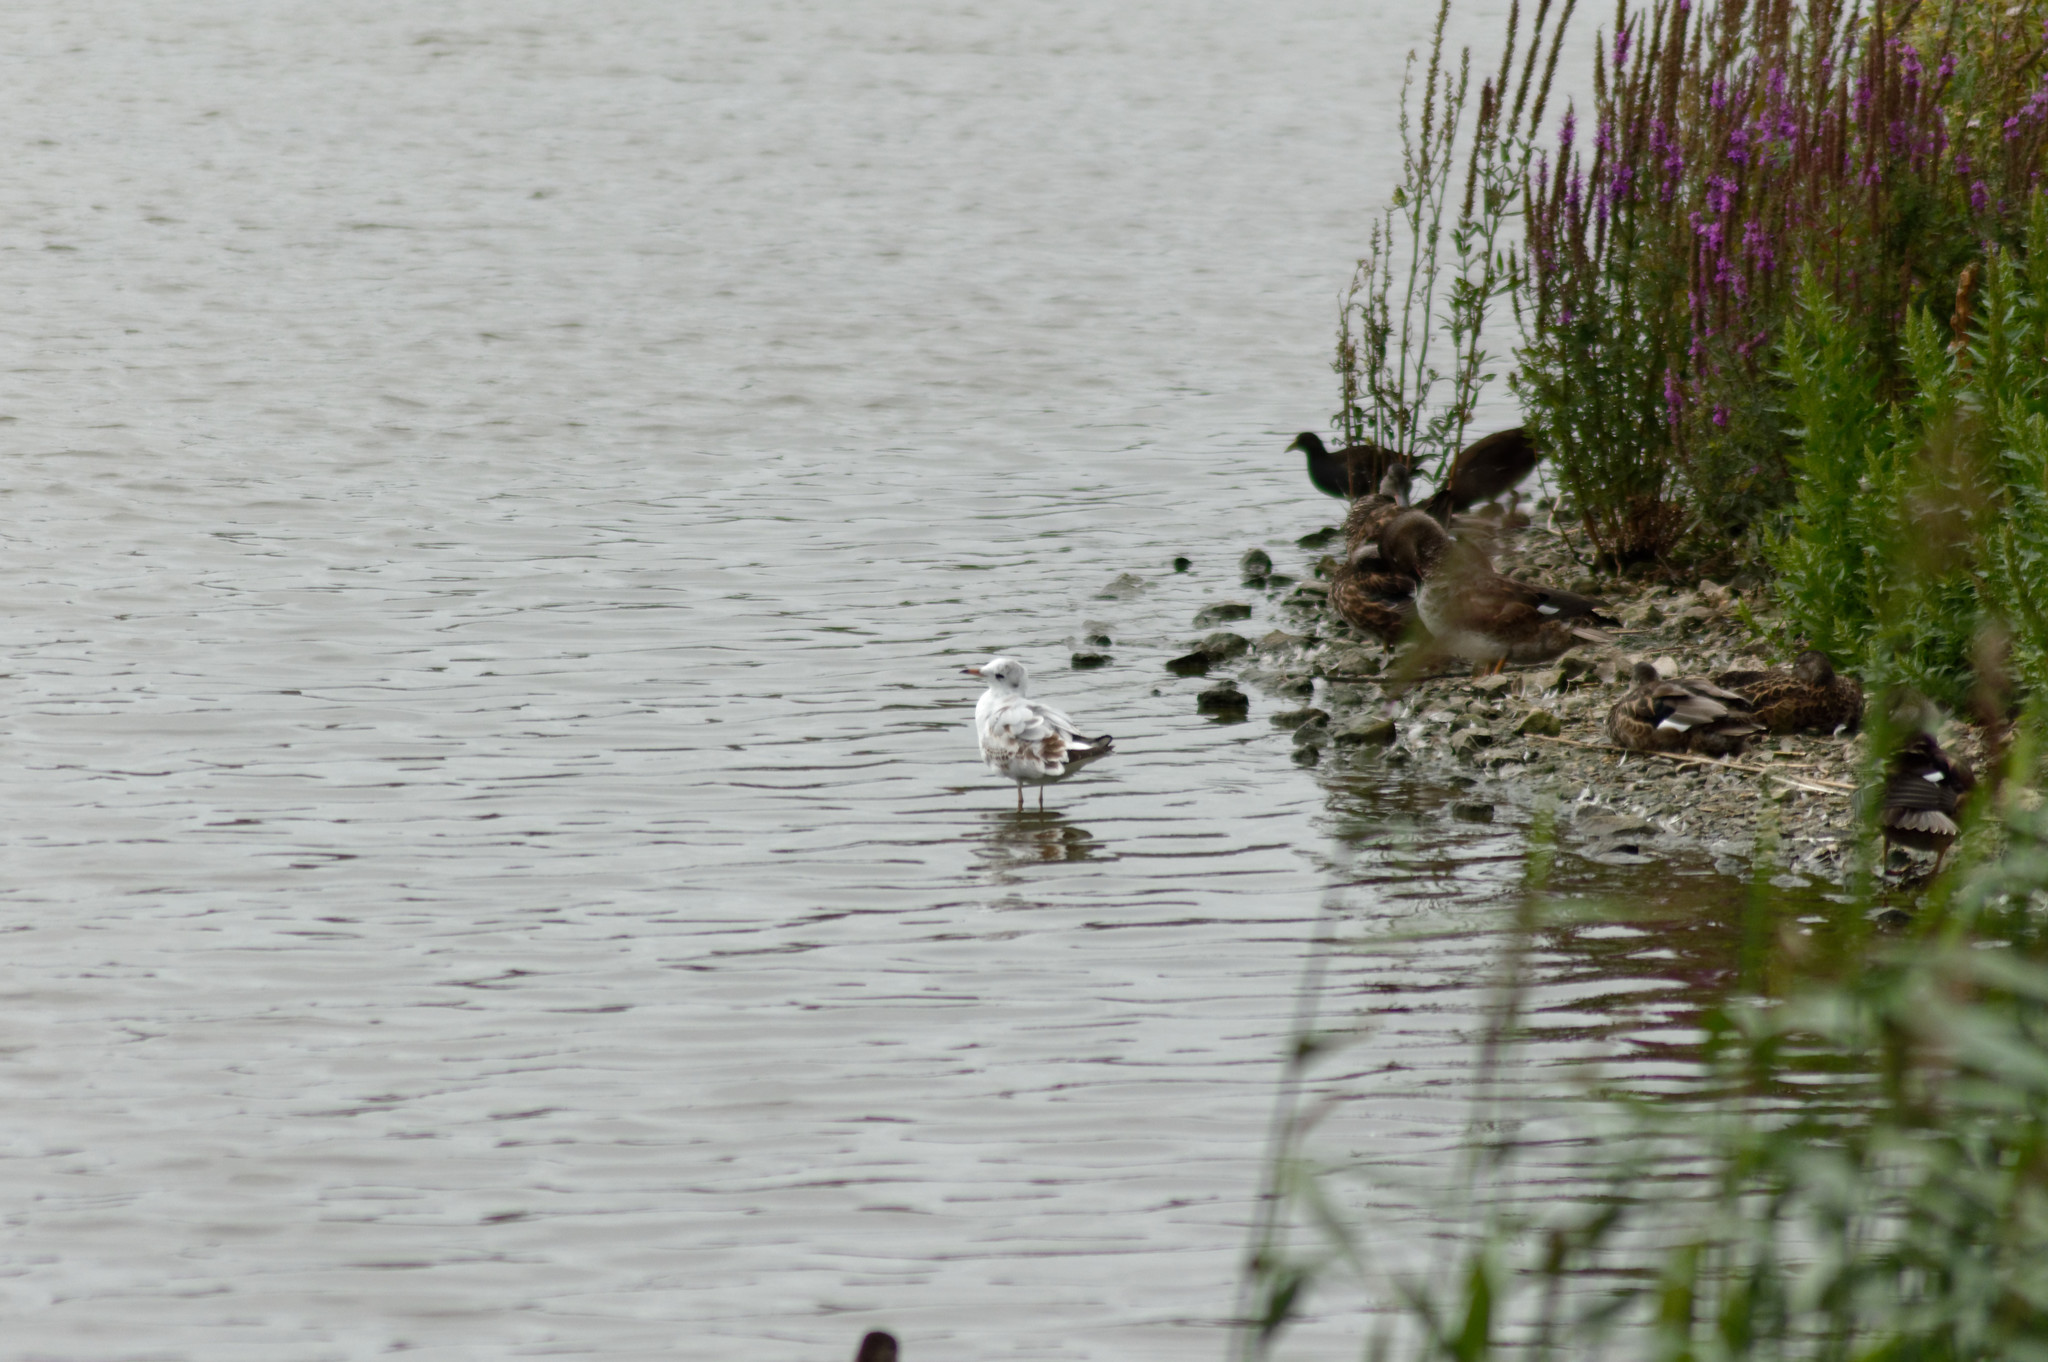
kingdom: Animalia
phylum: Chordata
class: Aves
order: Charadriiformes
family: Laridae
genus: Chroicocephalus
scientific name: Chroicocephalus ridibundus
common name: Black-headed gull
